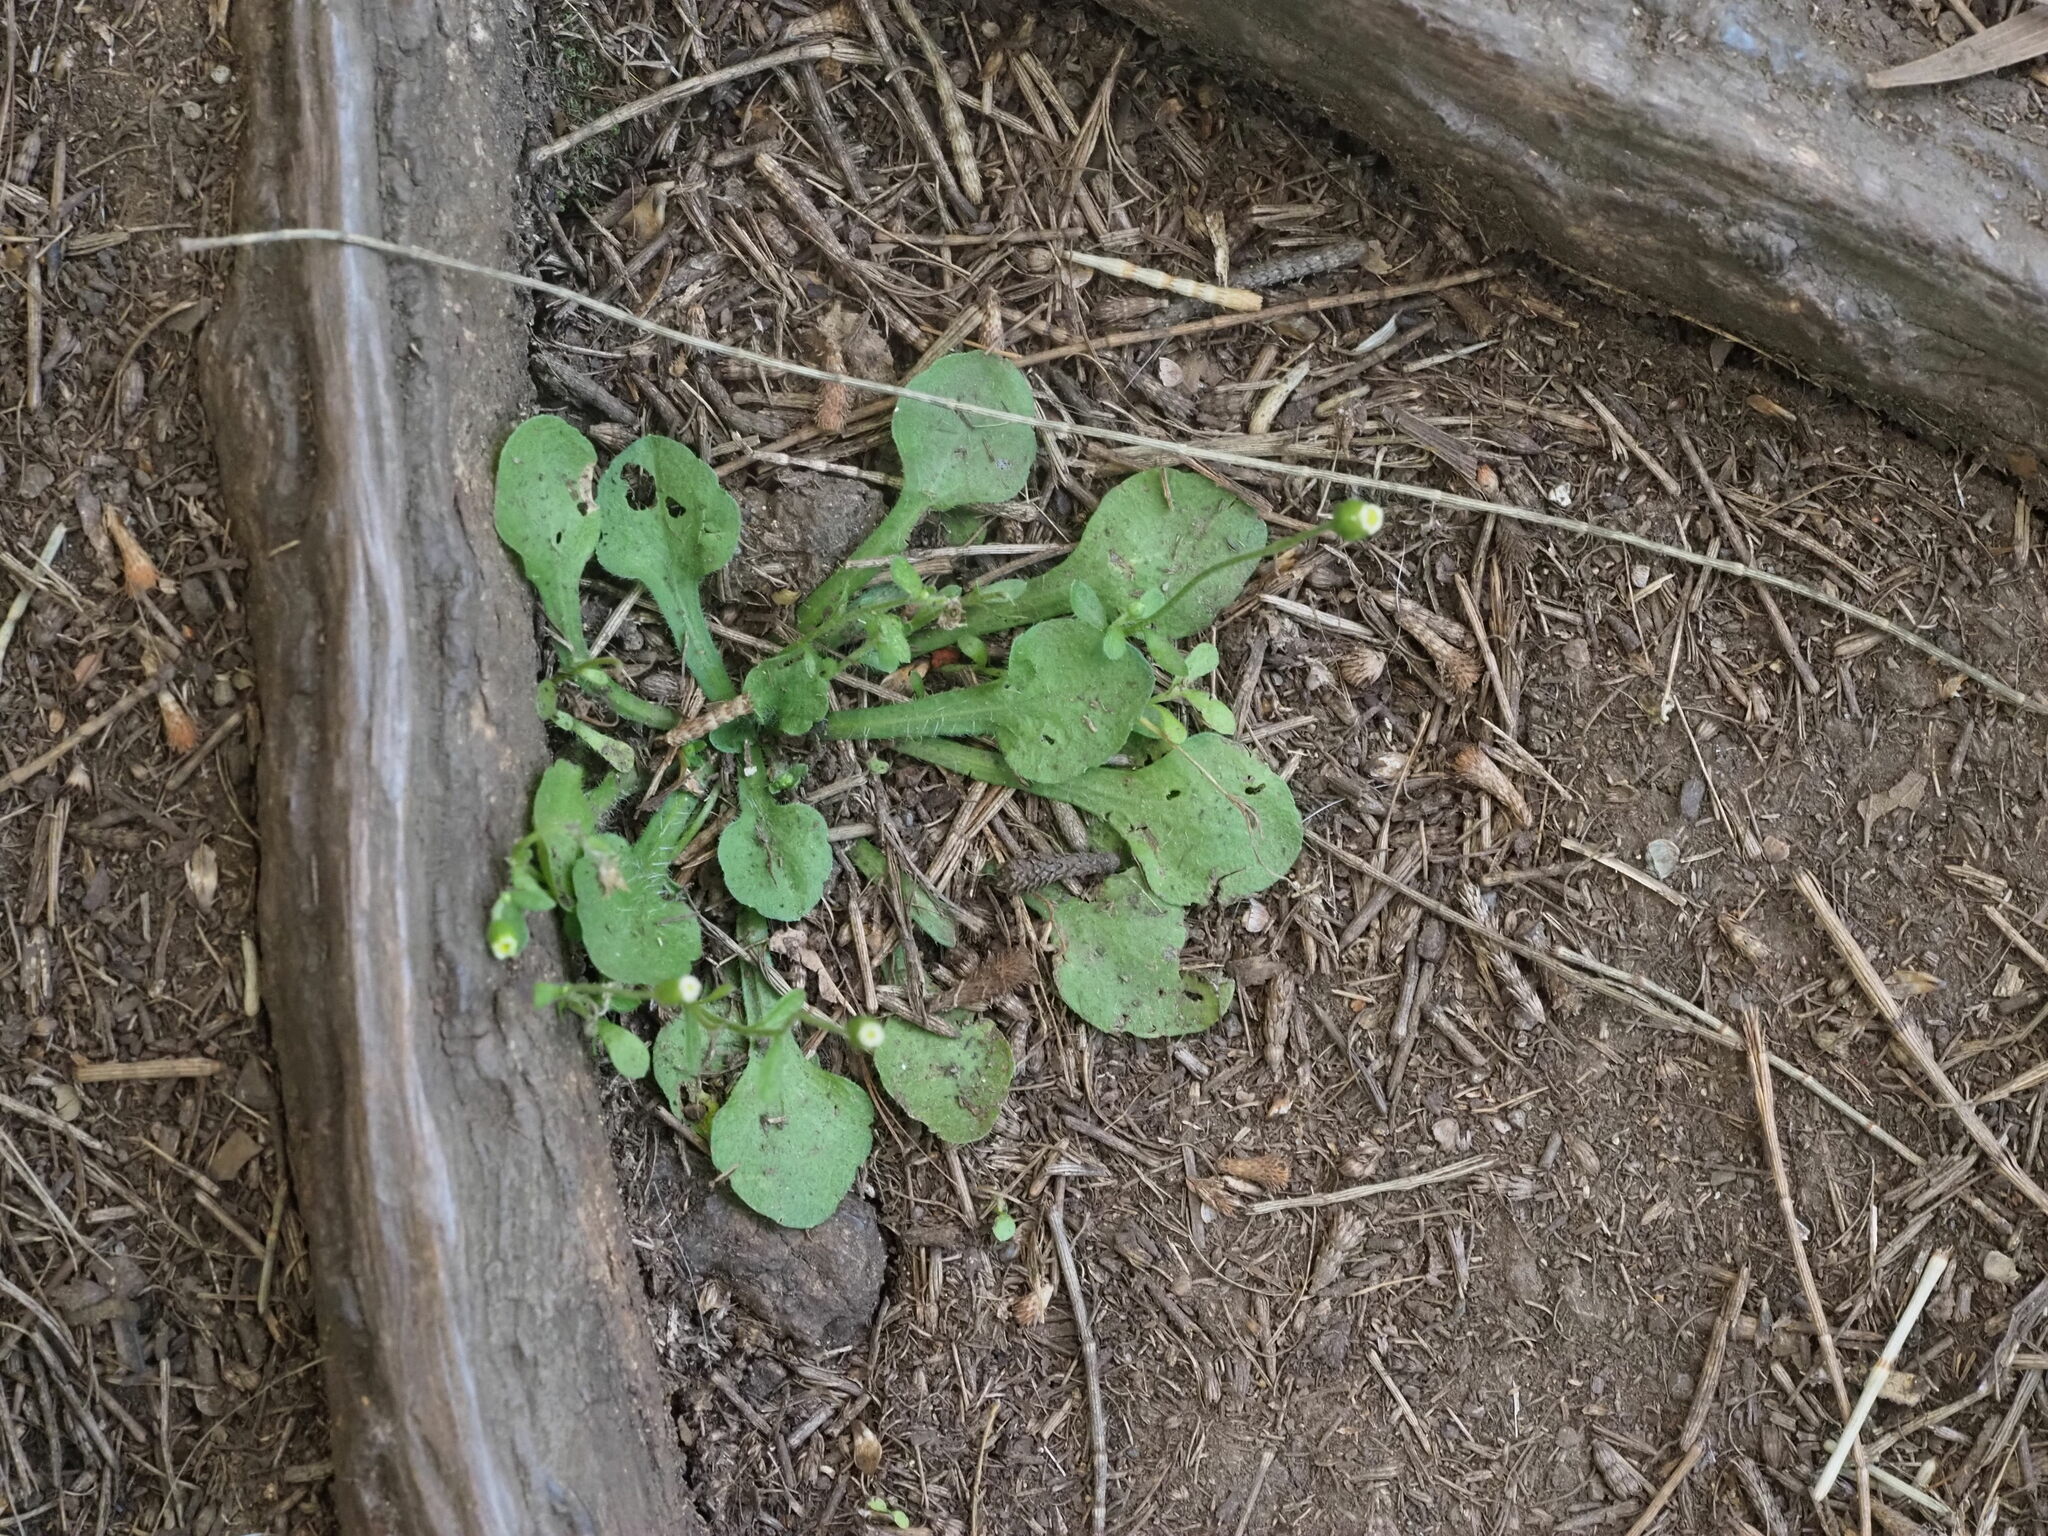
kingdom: Plantae
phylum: Tracheophyta
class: Magnoliopsida
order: Asterales
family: Asteraceae
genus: Erigeron
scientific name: Erigeron bellioides
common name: Bellorita
